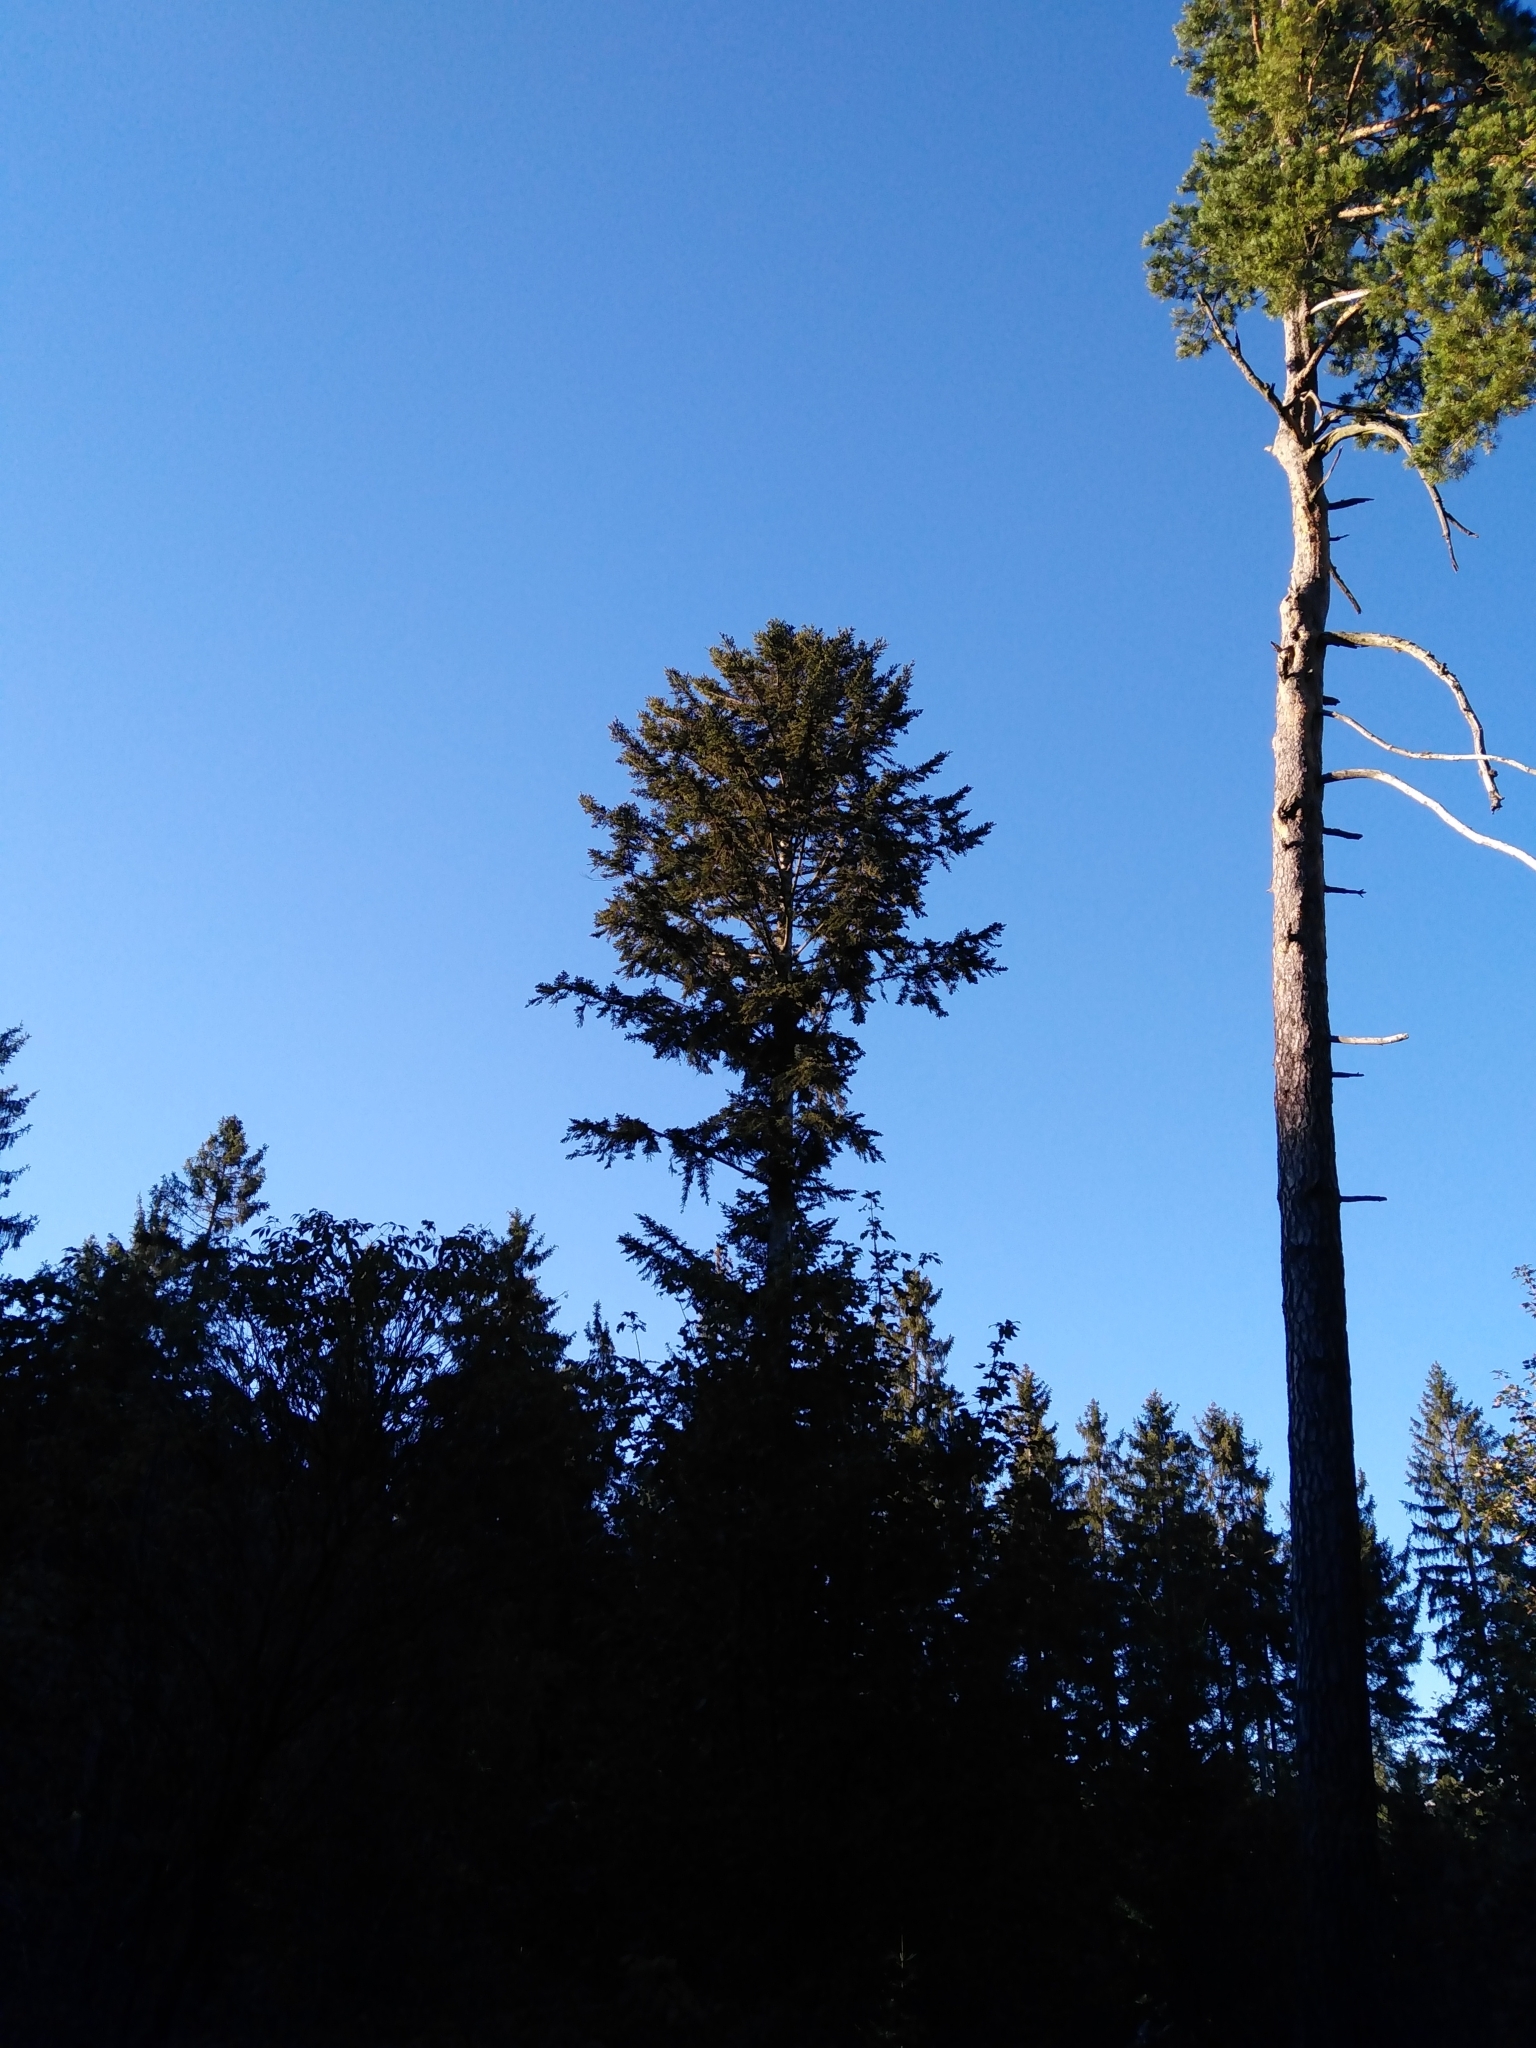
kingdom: Plantae
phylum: Tracheophyta
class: Pinopsida
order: Pinales
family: Pinaceae
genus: Abies
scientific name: Abies alba
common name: Silver fir
